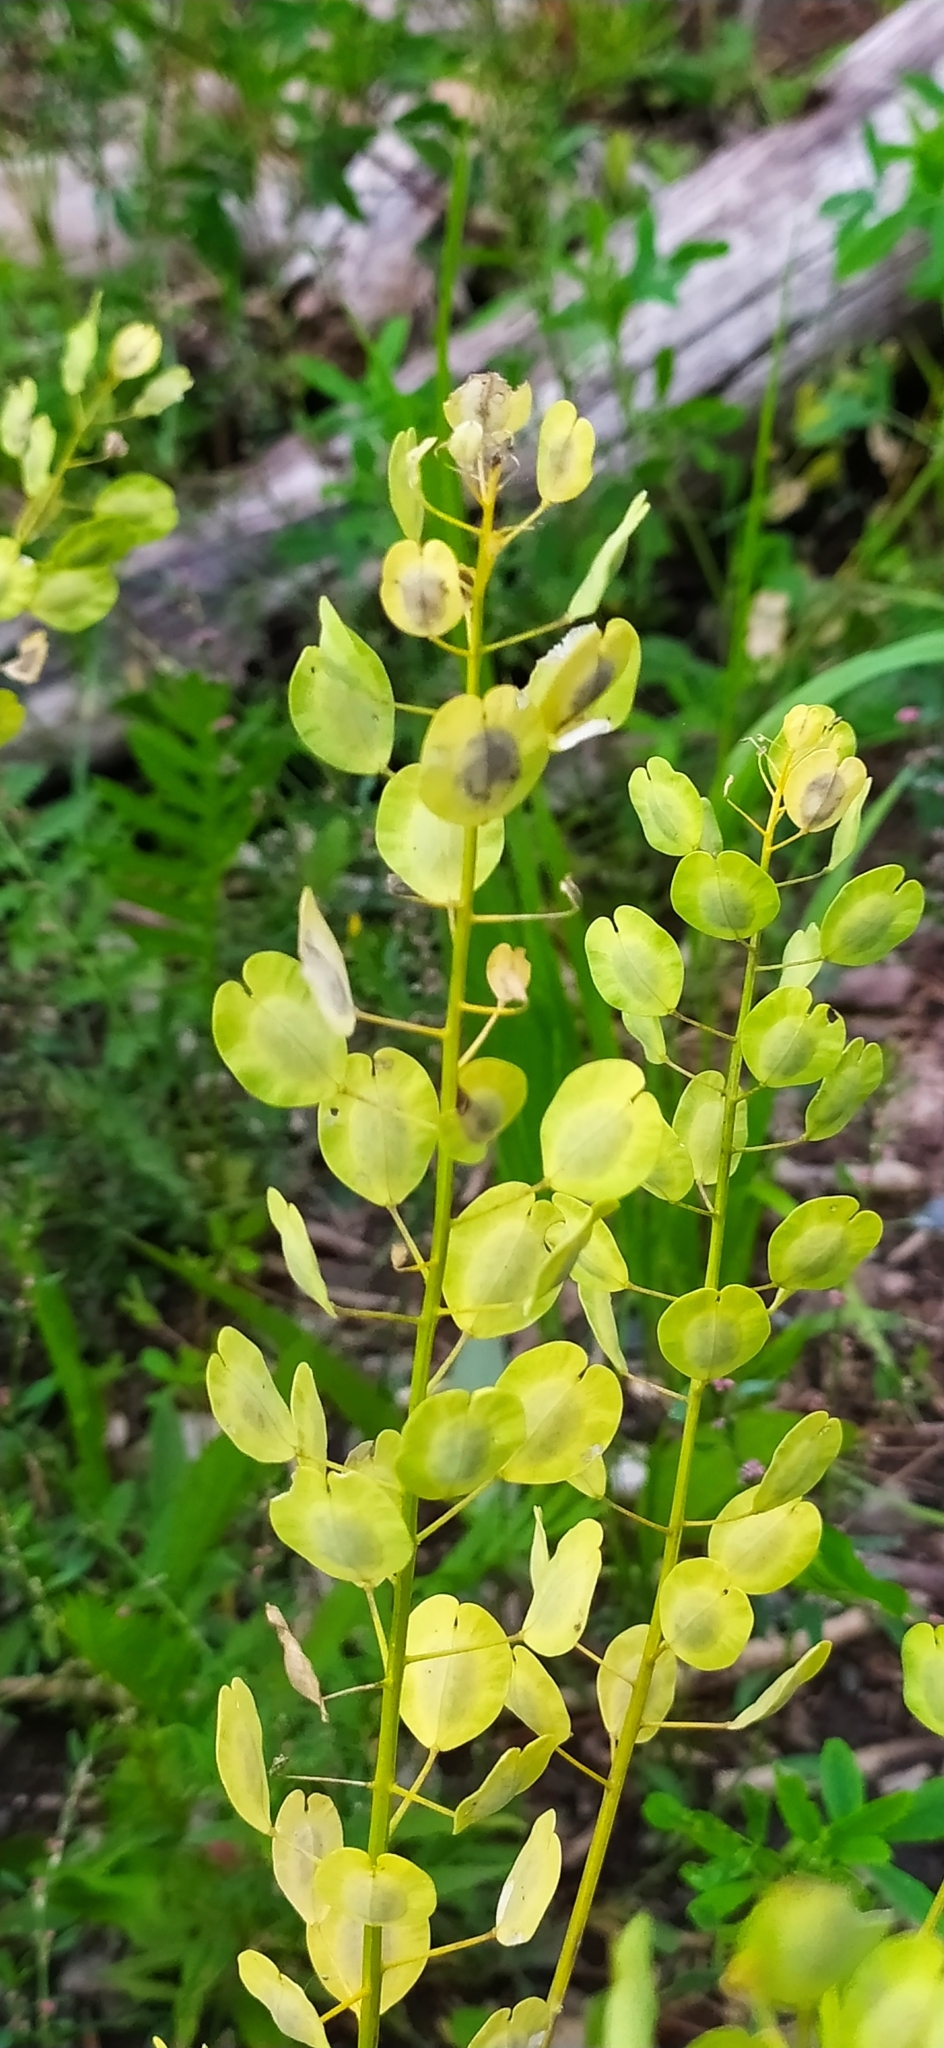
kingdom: Plantae
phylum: Tracheophyta
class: Magnoliopsida
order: Brassicales
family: Brassicaceae
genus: Thlaspi
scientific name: Thlaspi arvense
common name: Field pennycress
